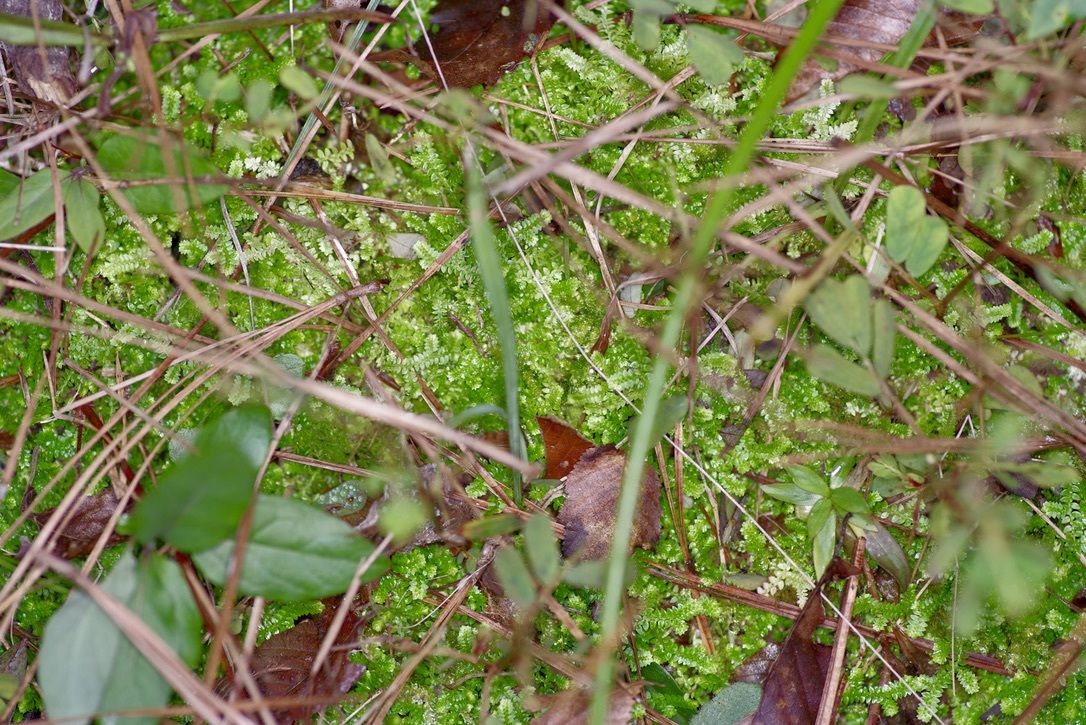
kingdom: Plantae
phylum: Tracheophyta
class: Lycopodiopsida
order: Selaginellales
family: Selaginellaceae
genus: Selaginella
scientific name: Selaginella apoda
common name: Creeping spikemoss
